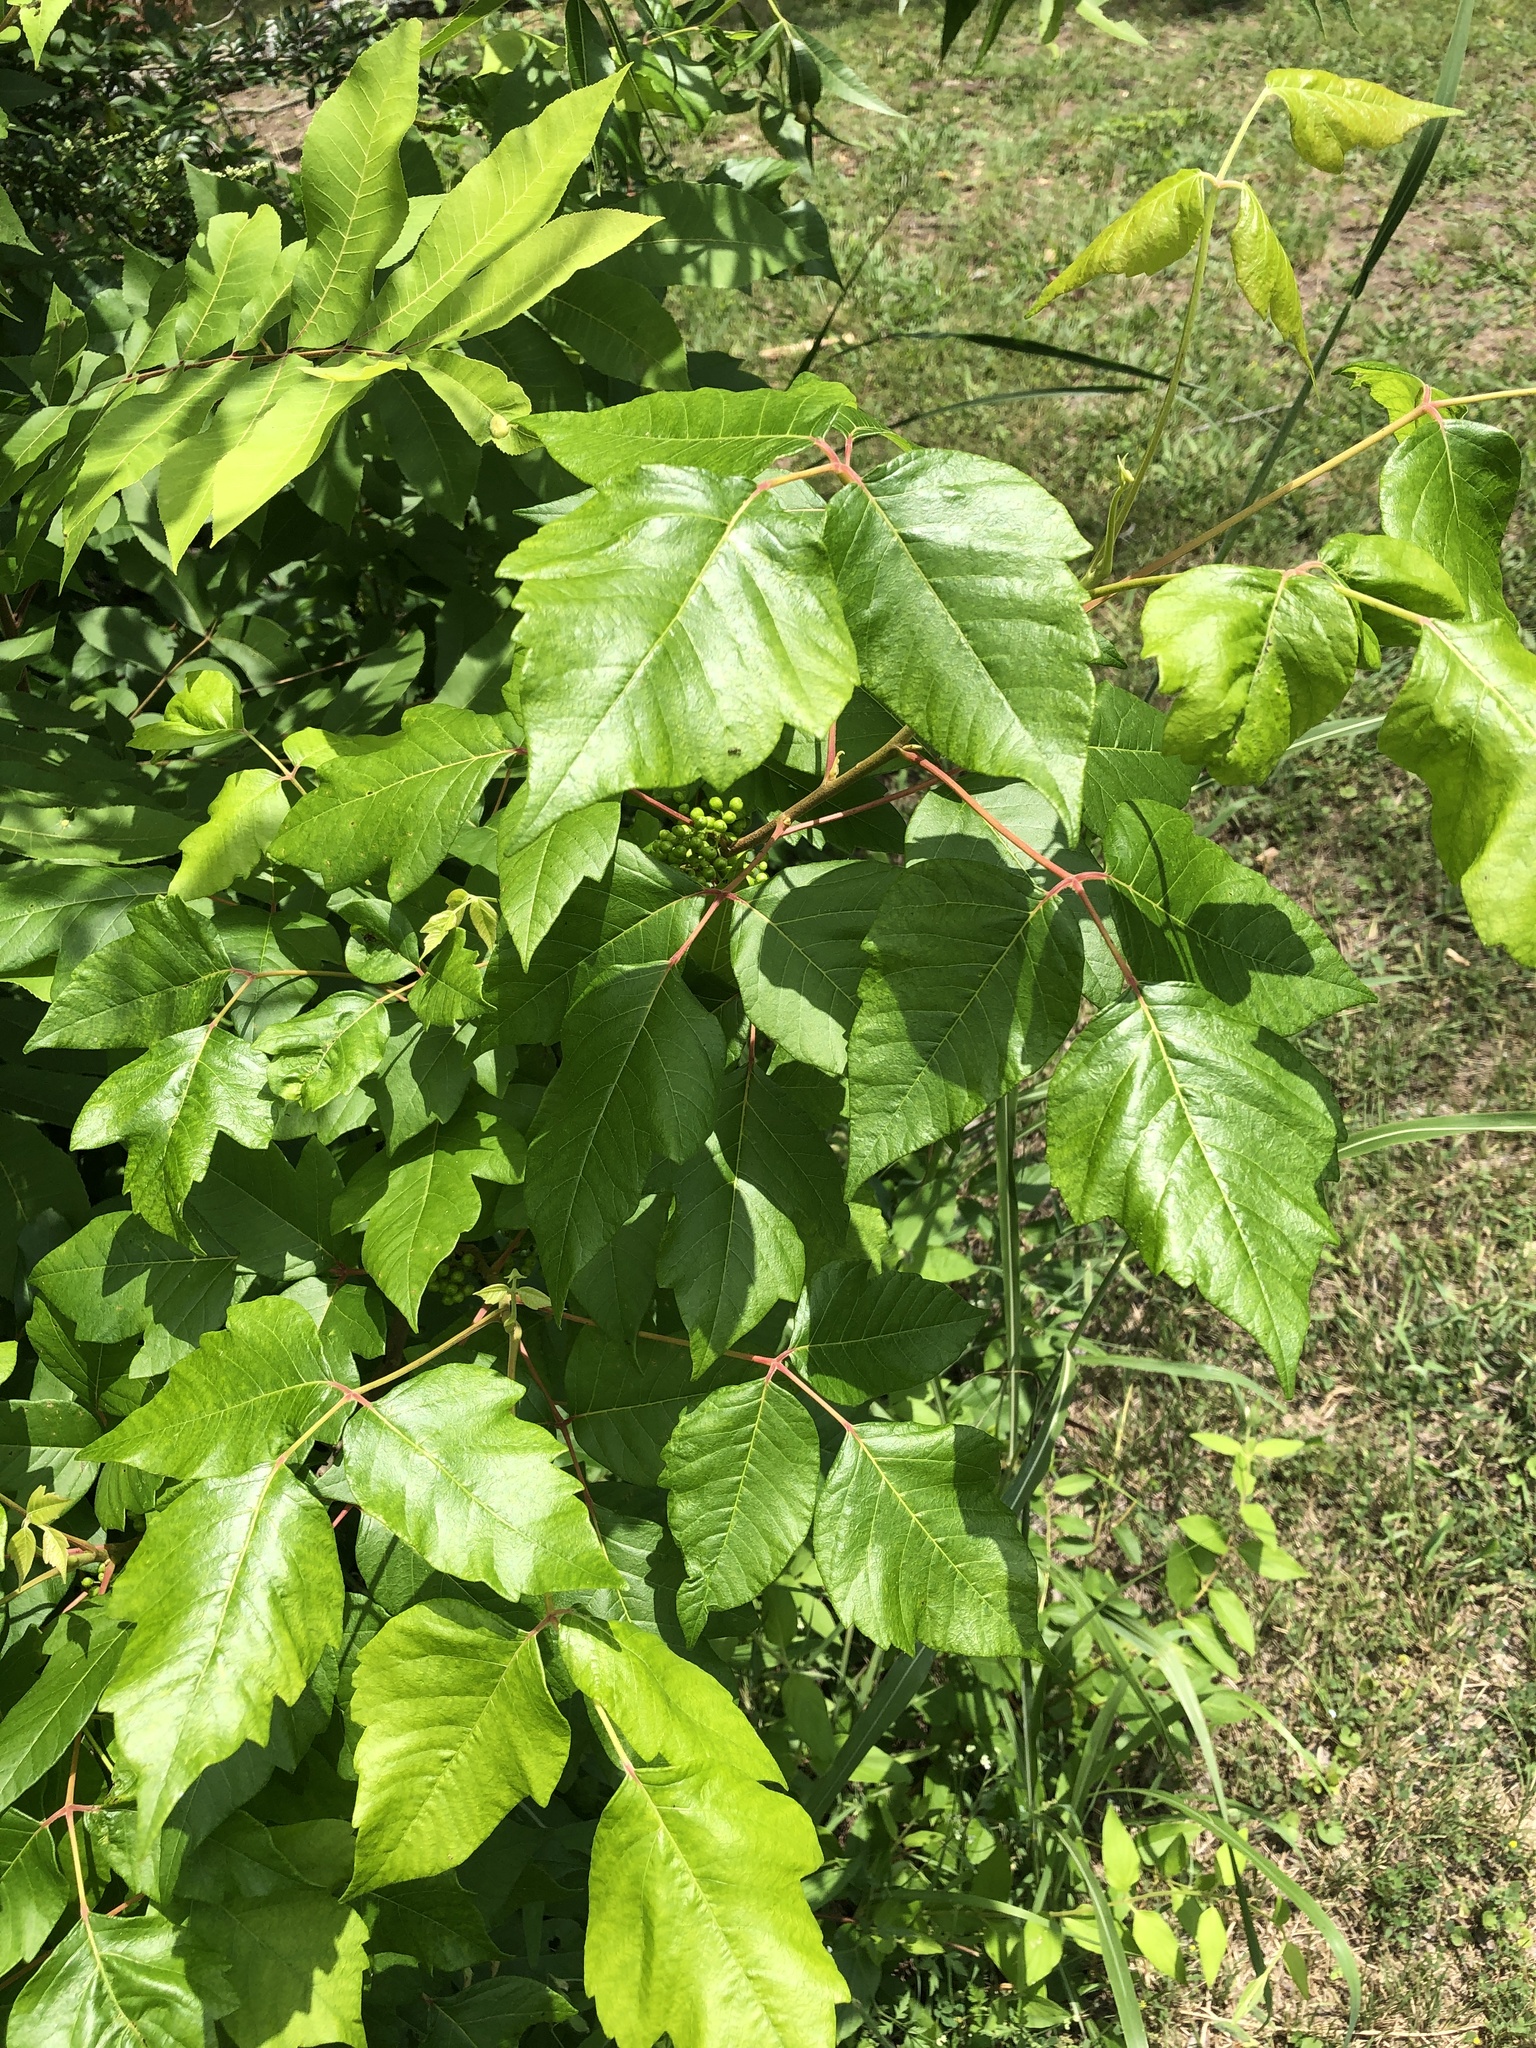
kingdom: Plantae
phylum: Tracheophyta
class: Magnoliopsida
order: Sapindales
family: Anacardiaceae
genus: Toxicodendron
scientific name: Toxicodendron radicans
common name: Poison ivy
